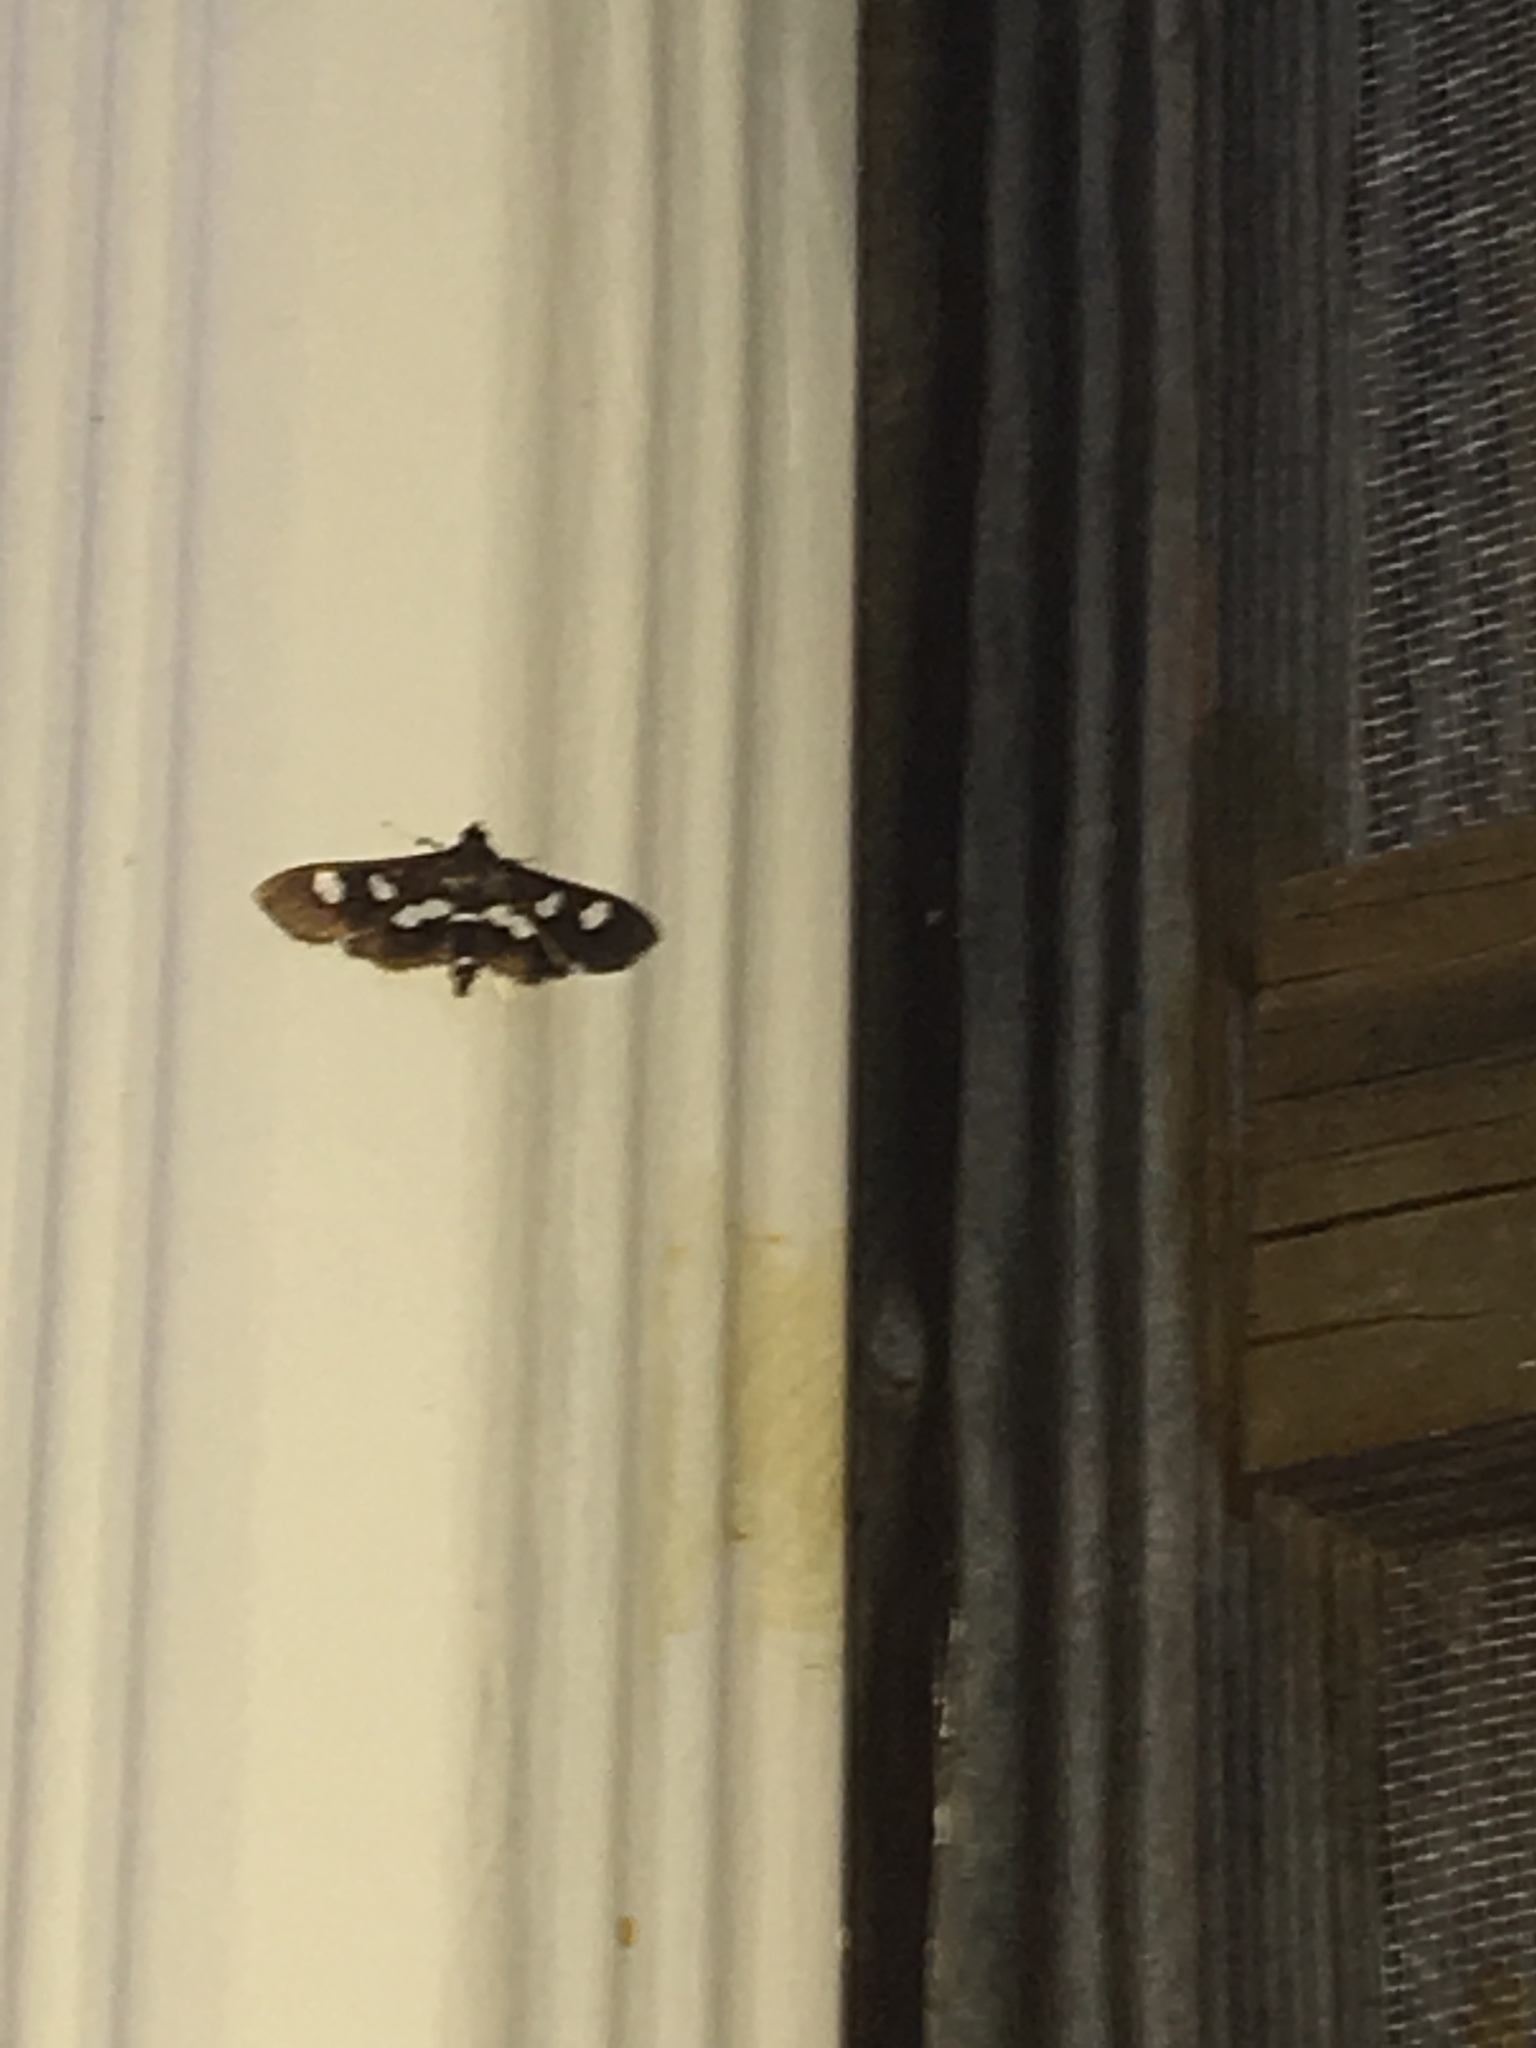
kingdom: Animalia
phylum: Arthropoda
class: Insecta
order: Lepidoptera
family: Crambidae
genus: Desmia
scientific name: Desmia
